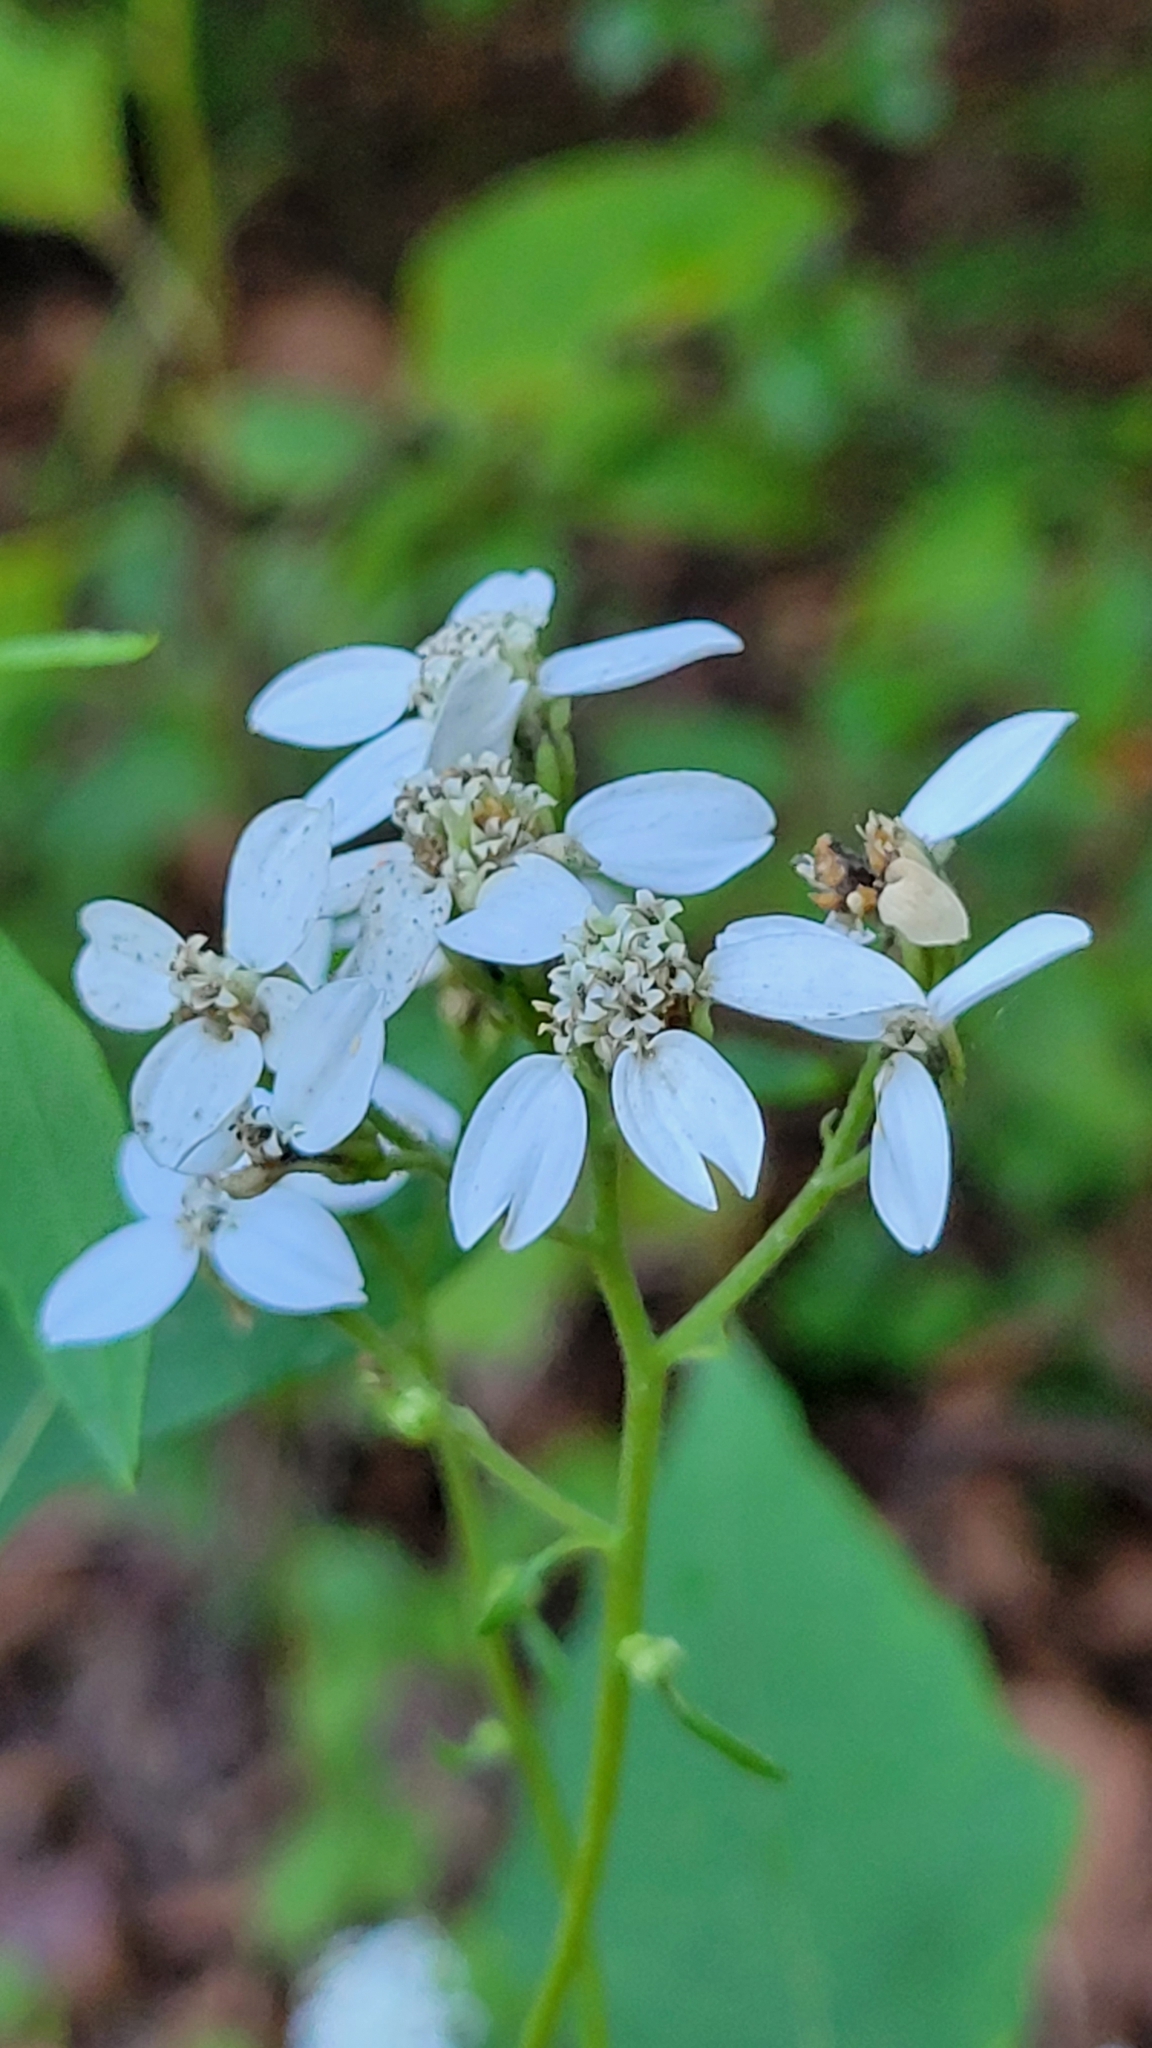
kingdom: Plantae
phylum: Tracheophyta
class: Magnoliopsida
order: Asterales
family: Asteraceae
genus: Verbesina
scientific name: Verbesina virginica
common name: Frostweed
